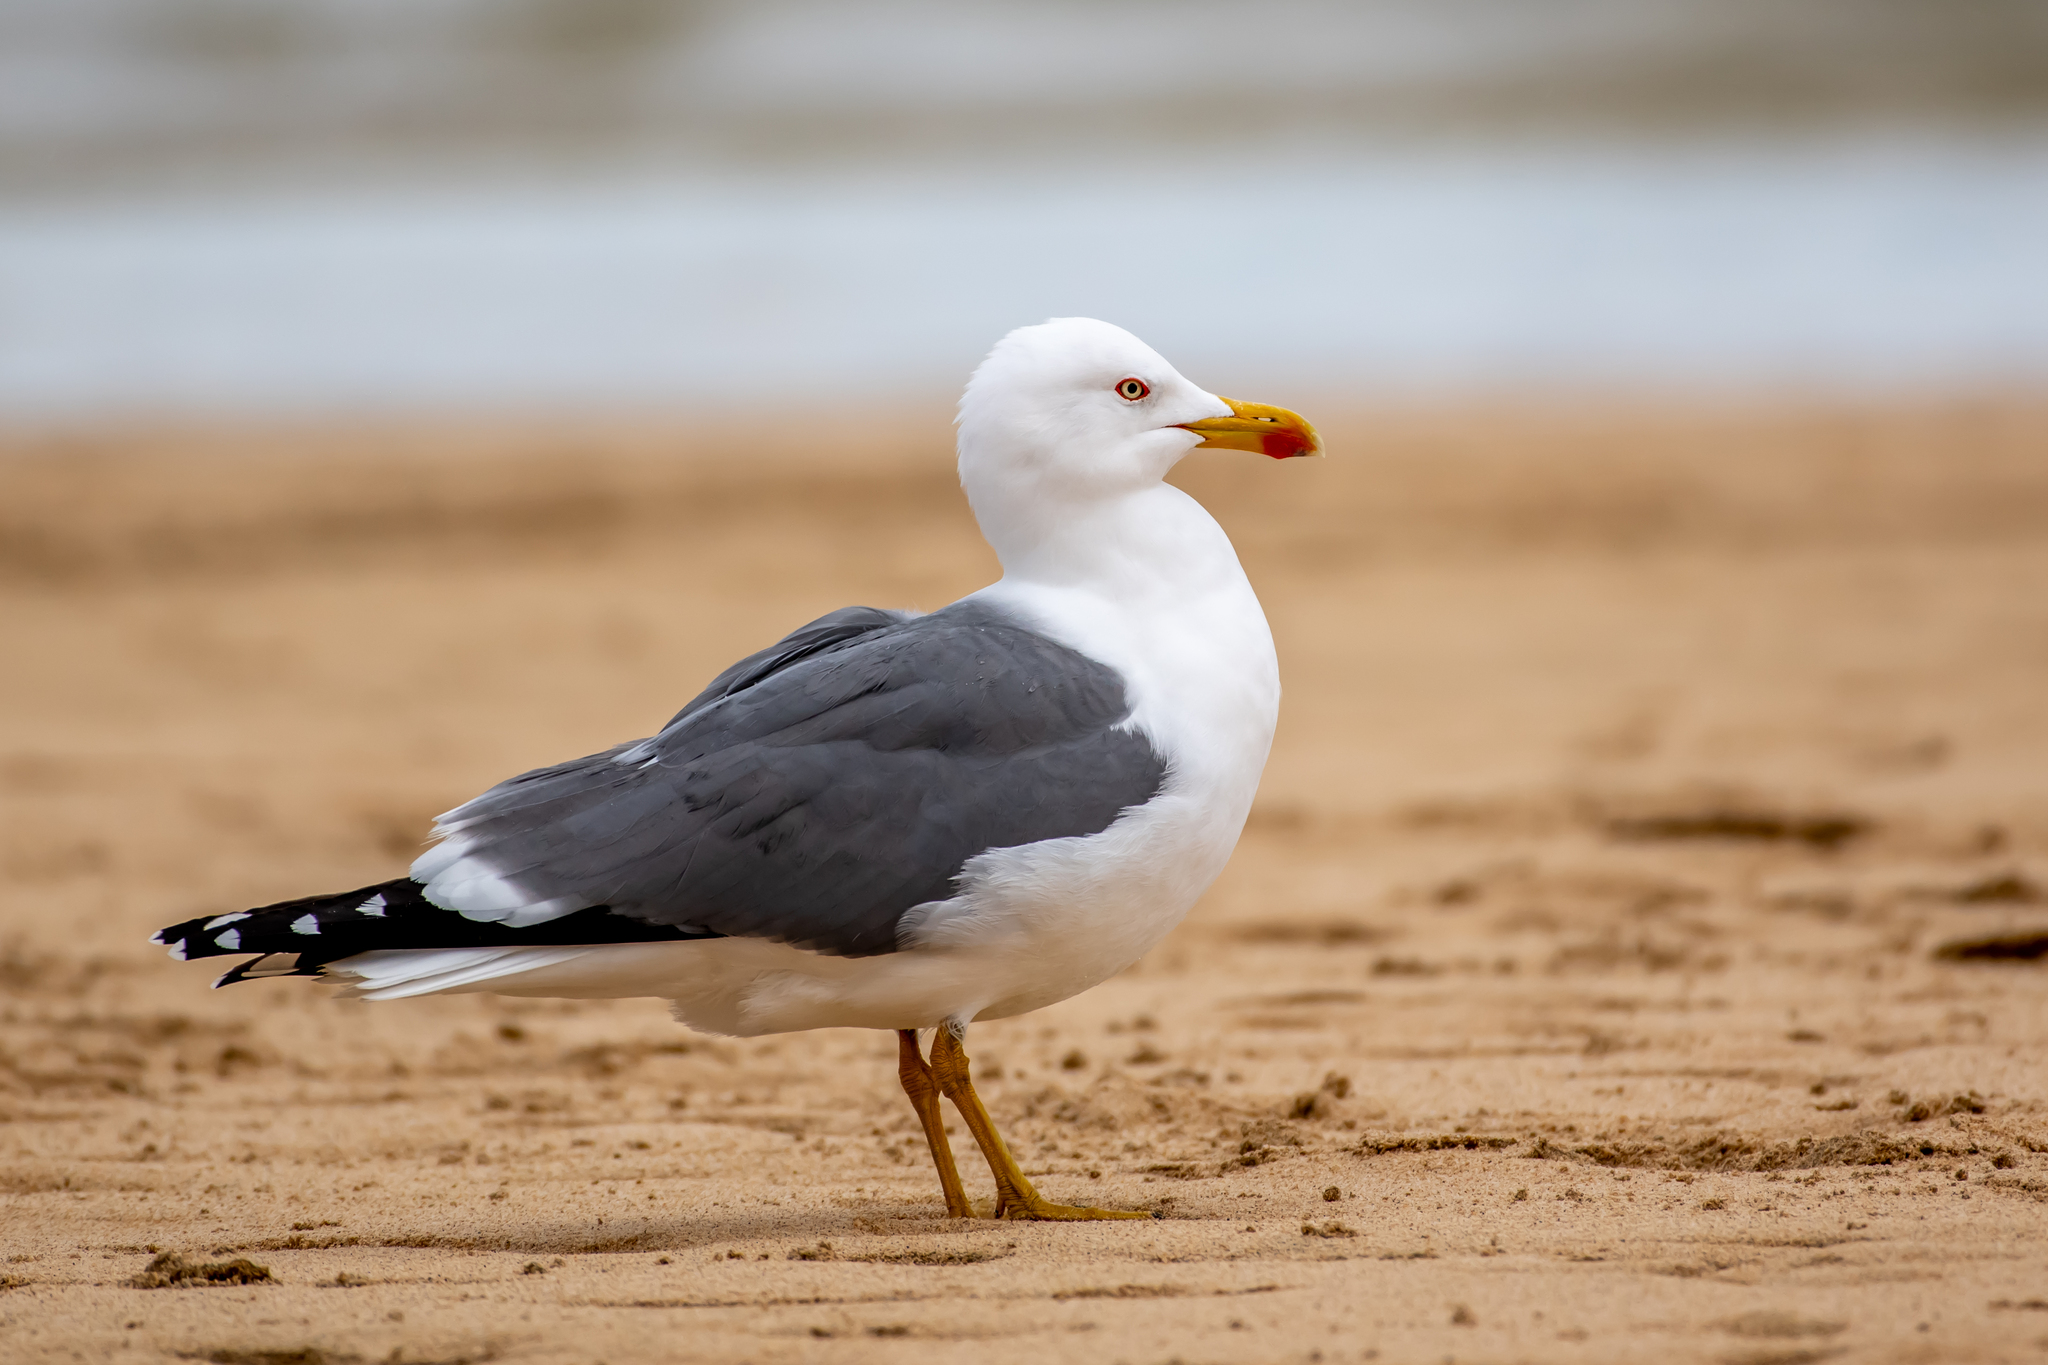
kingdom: Animalia
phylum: Chordata
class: Aves
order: Charadriiformes
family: Laridae
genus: Larus
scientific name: Larus michahellis
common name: Yellow-legged gull
